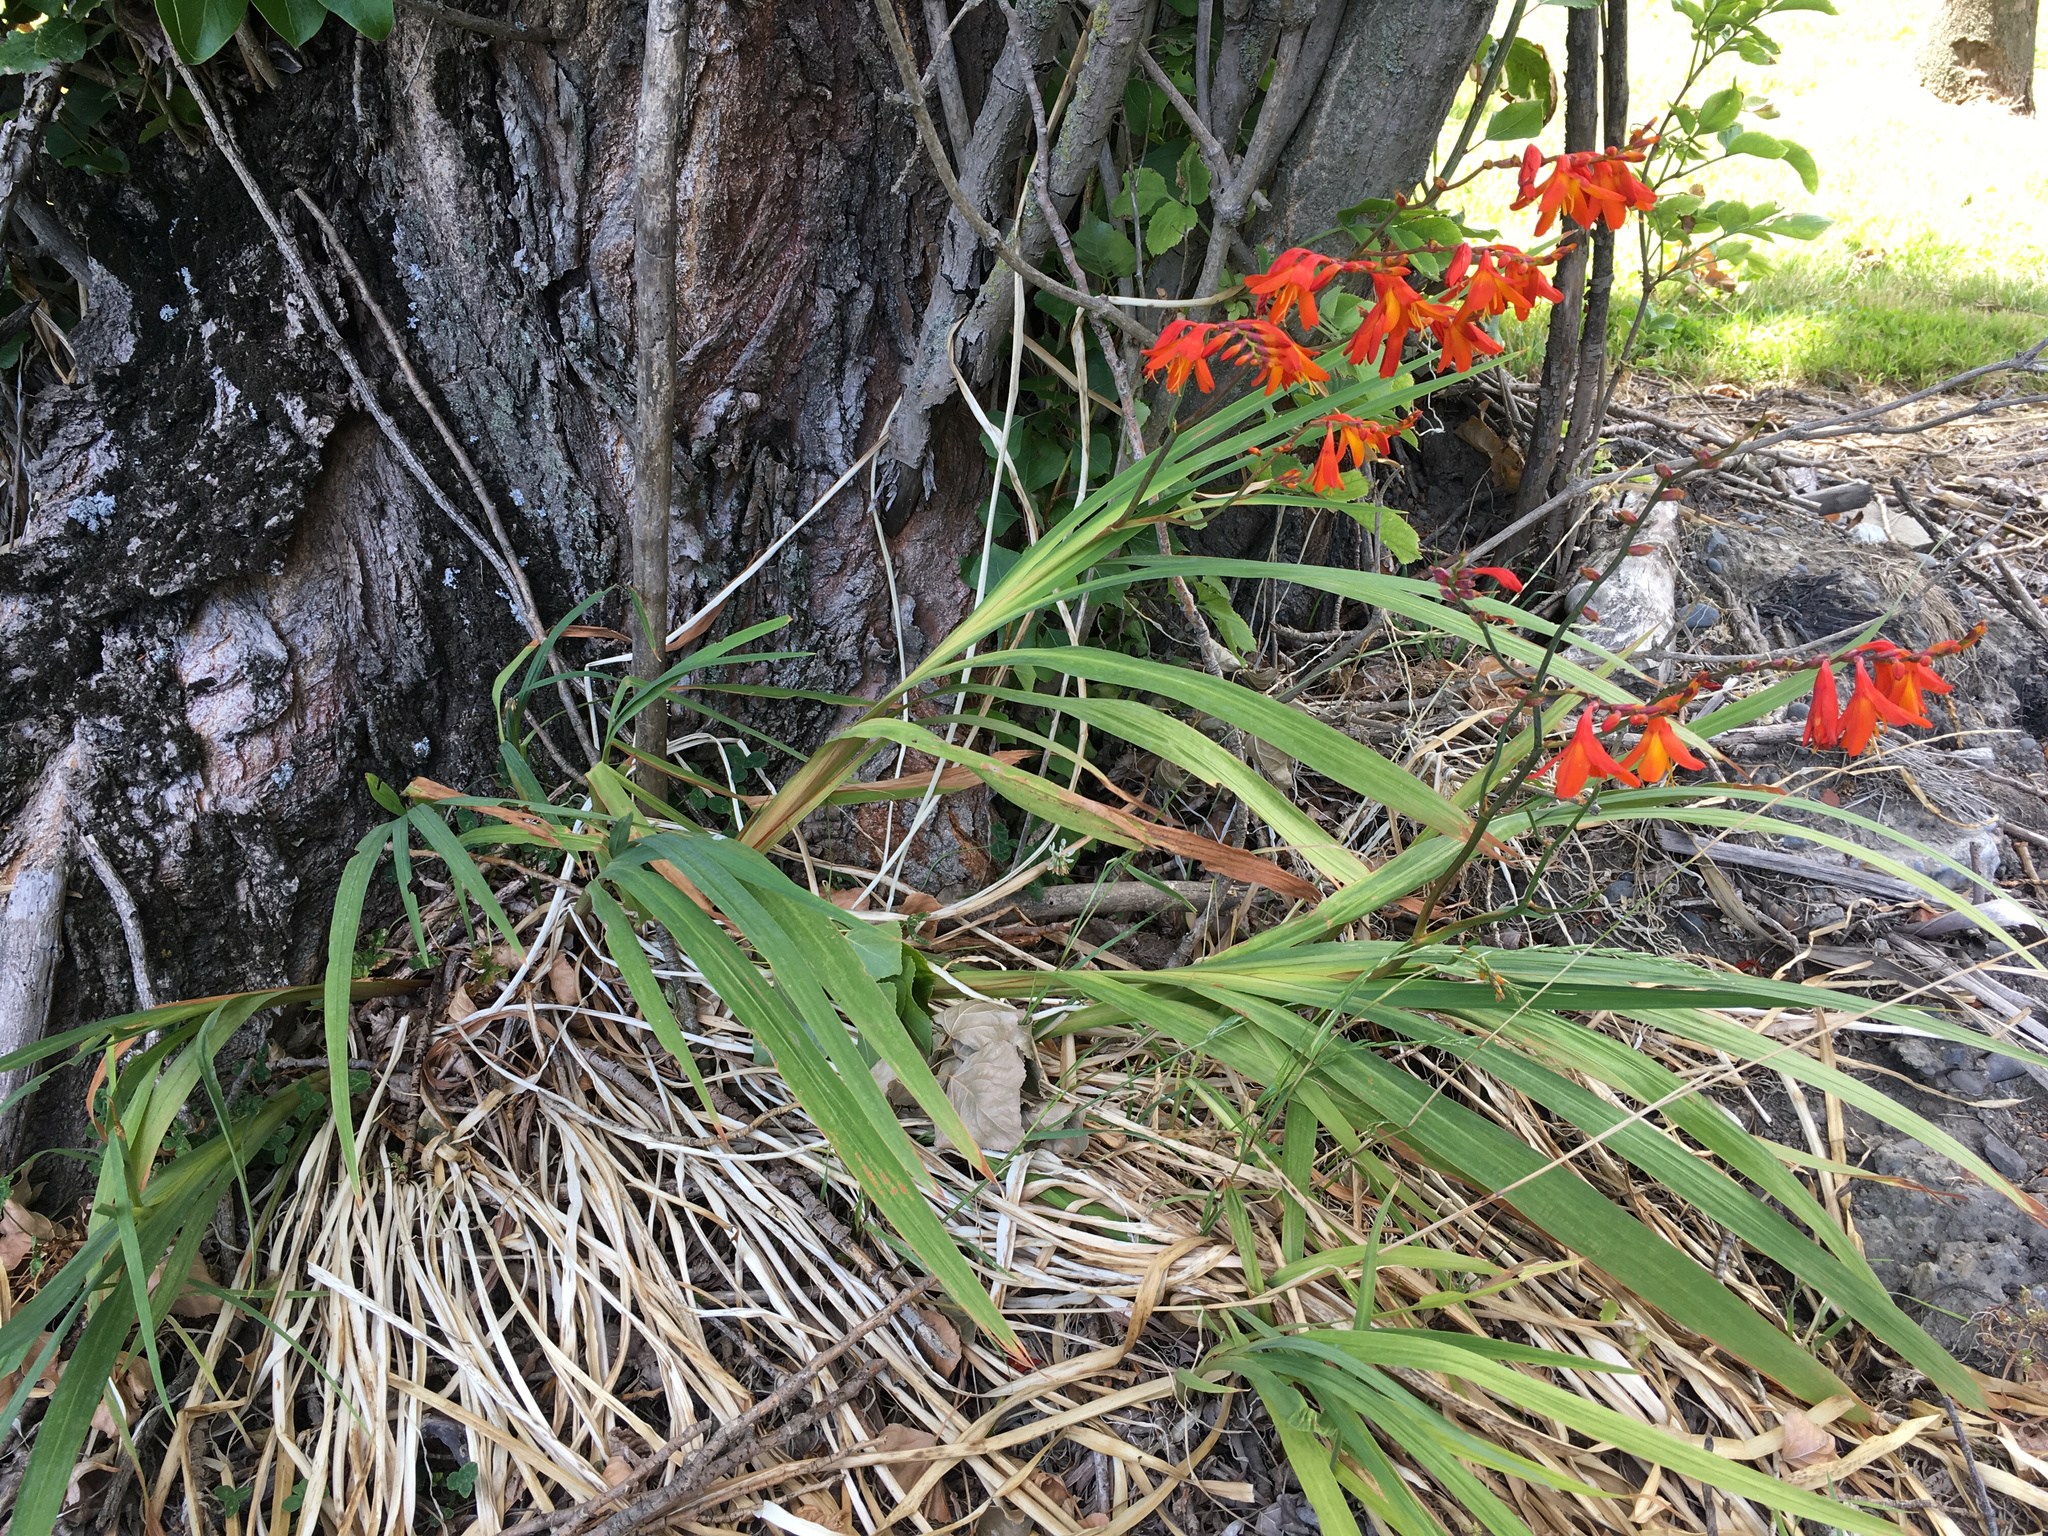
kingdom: Plantae
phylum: Tracheophyta
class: Liliopsida
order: Asparagales
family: Iridaceae
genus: Crocosmia
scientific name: Crocosmia crocosmiiflora
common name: Montbretia
